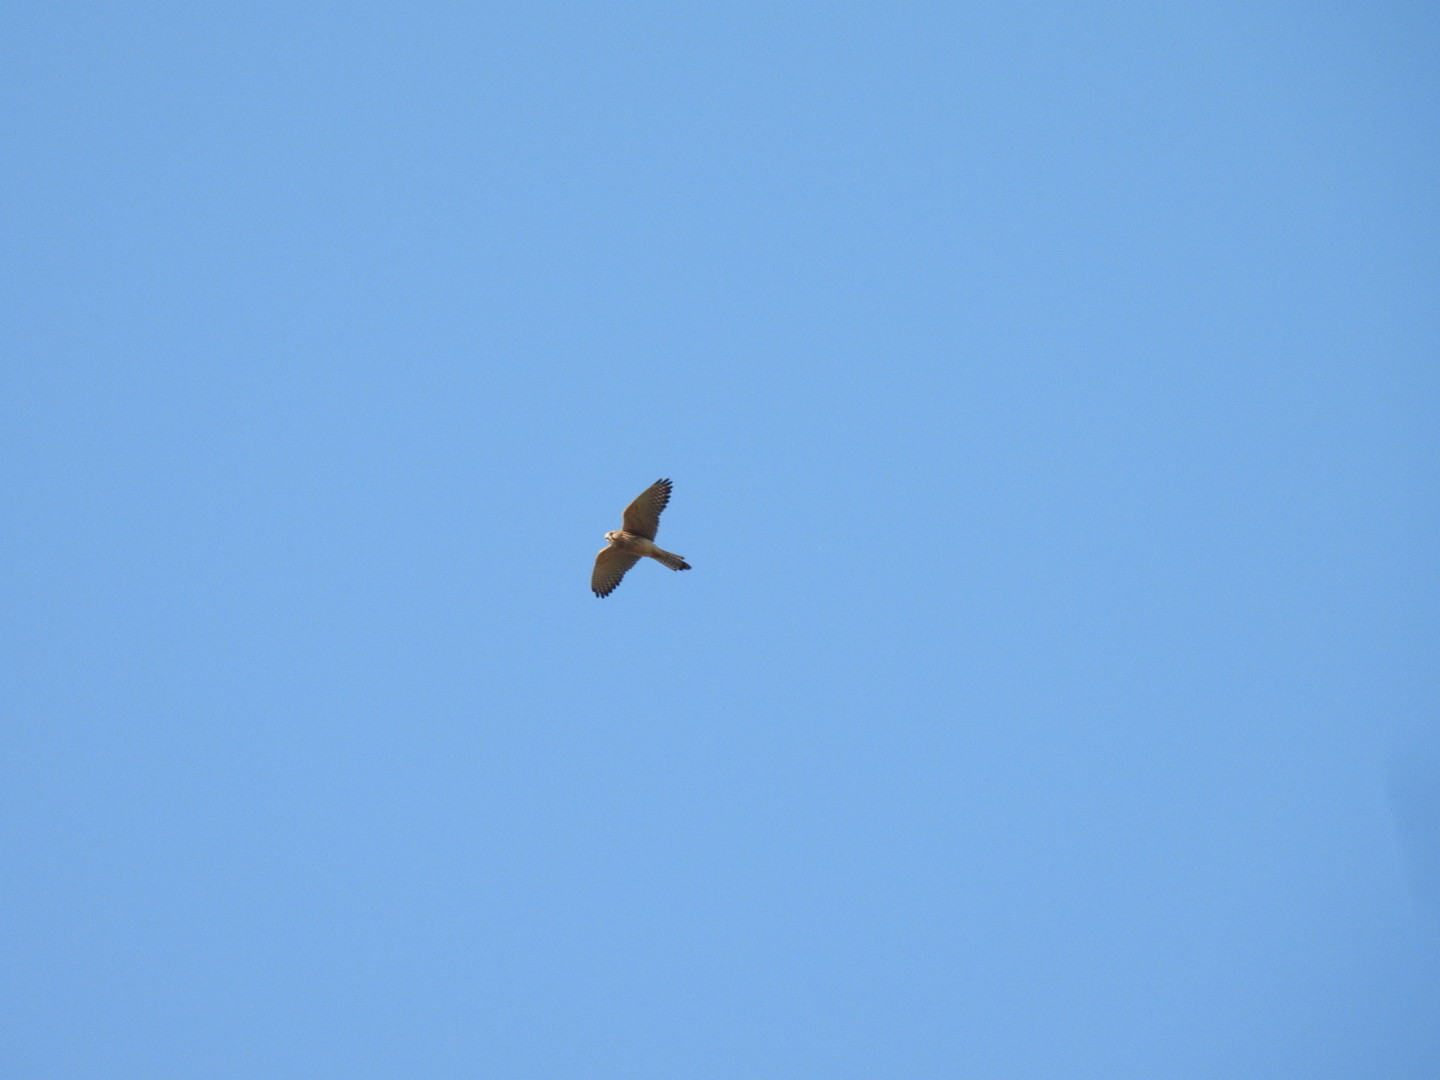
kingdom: Animalia
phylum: Chordata
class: Aves
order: Falconiformes
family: Falconidae
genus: Falco
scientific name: Falco tinnunculus
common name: Common kestrel
